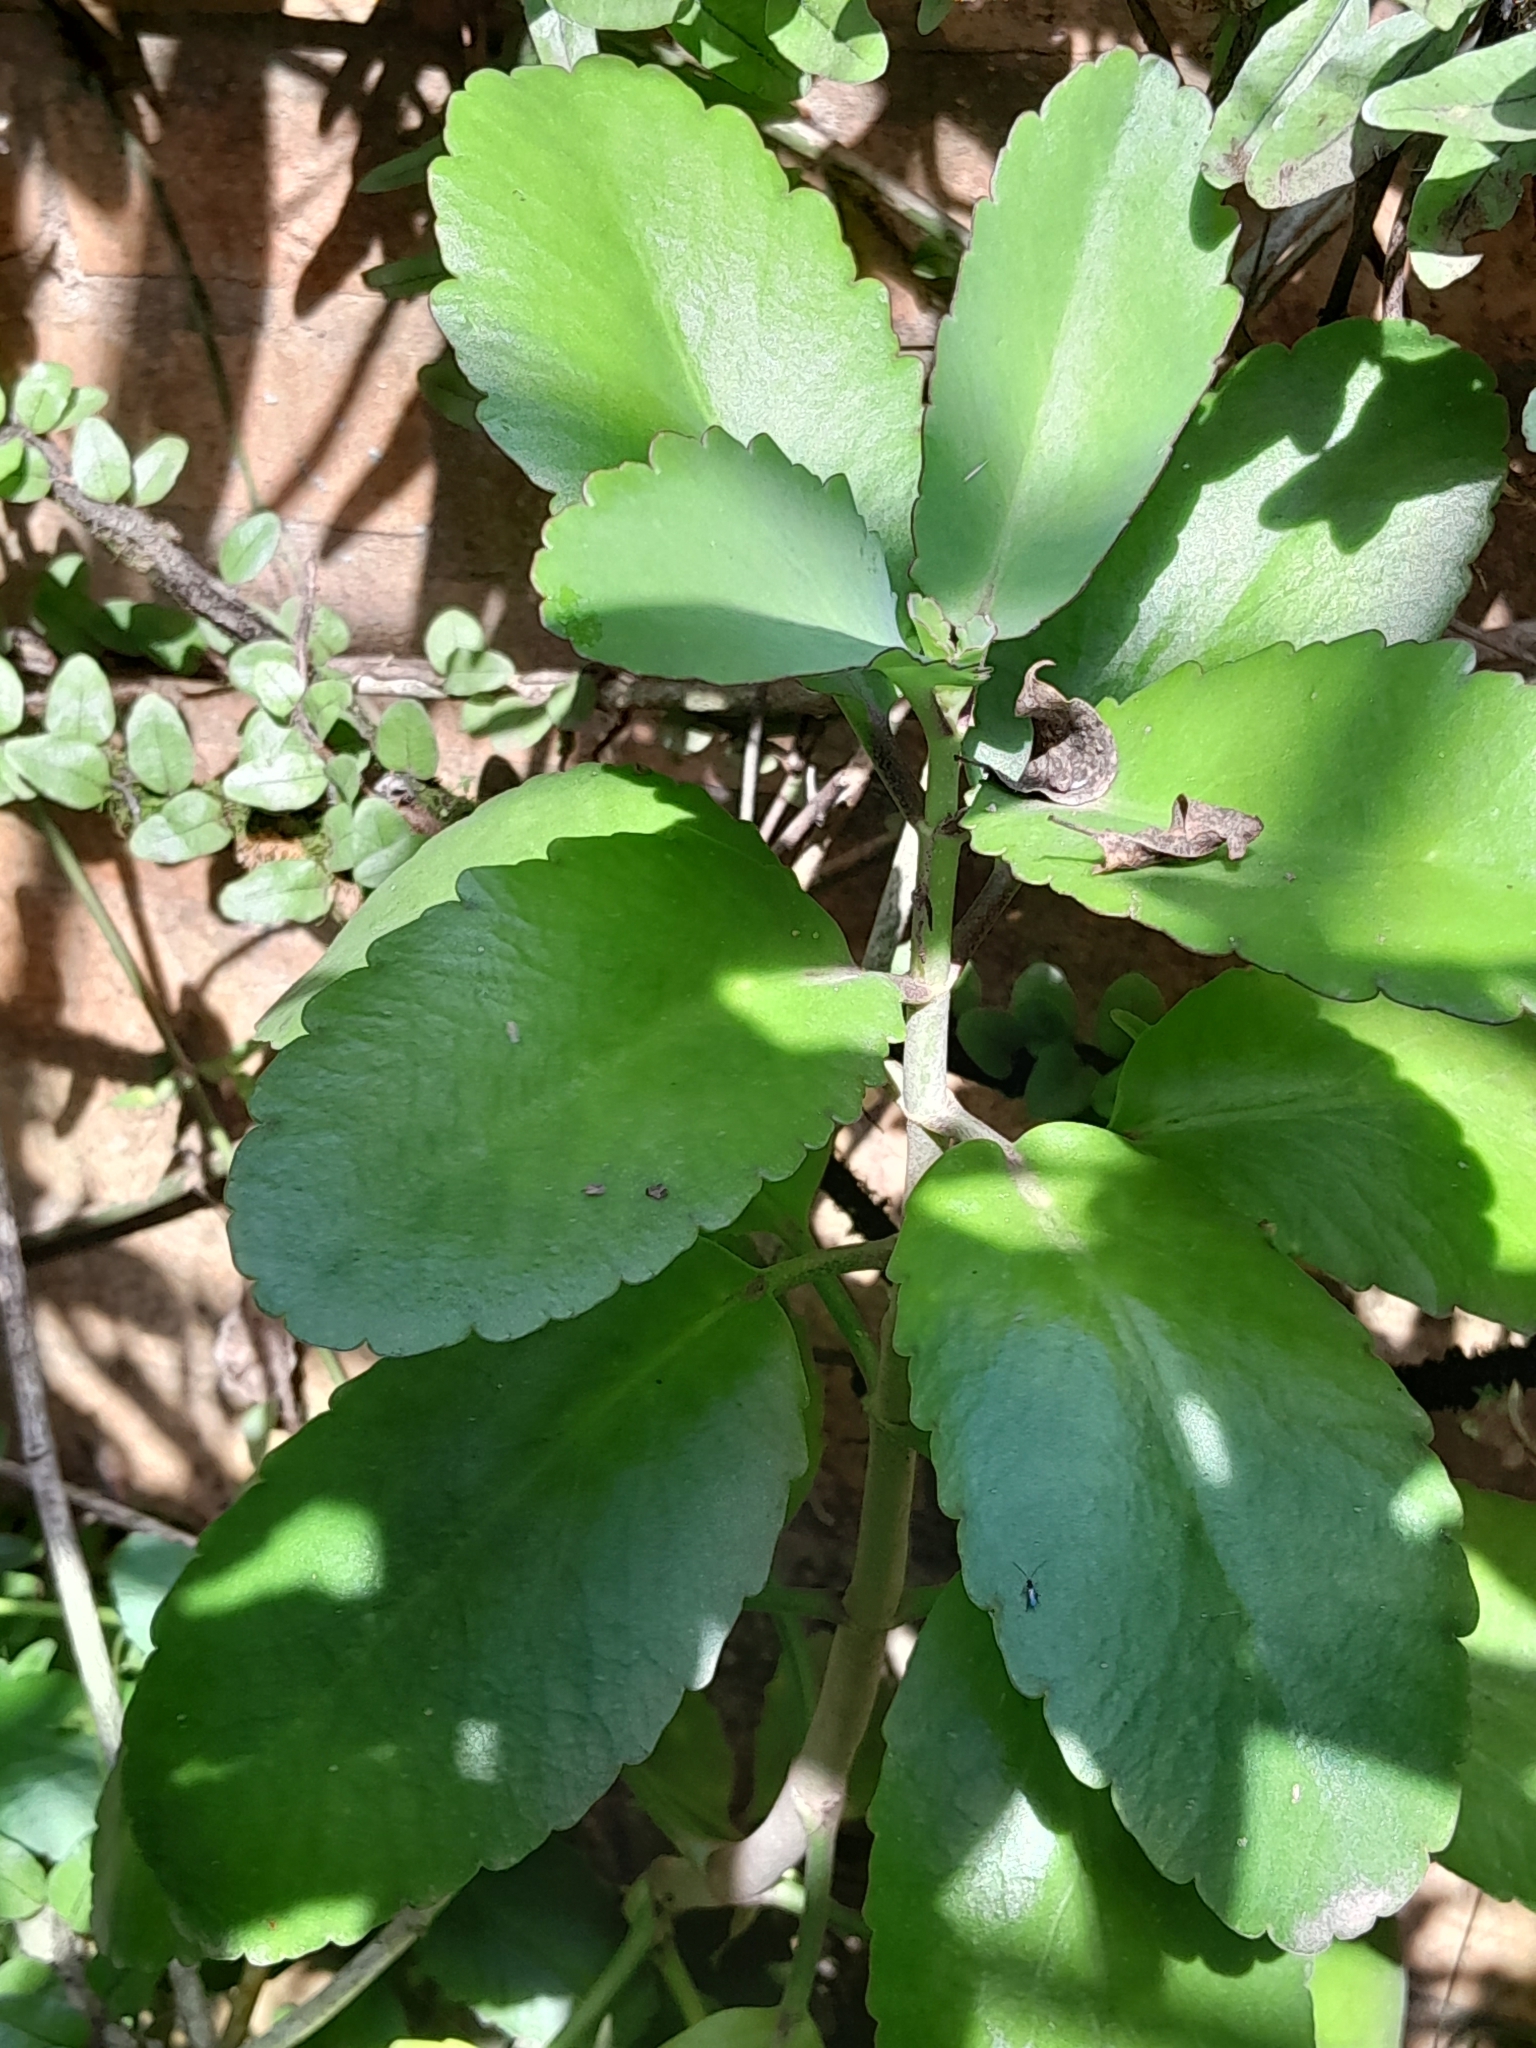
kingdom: Plantae
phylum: Tracheophyta
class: Magnoliopsida
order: Saxifragales
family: Crassulaceae
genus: Kalanchoe
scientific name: Kalanchoe pinnata
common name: Cathedral bells
